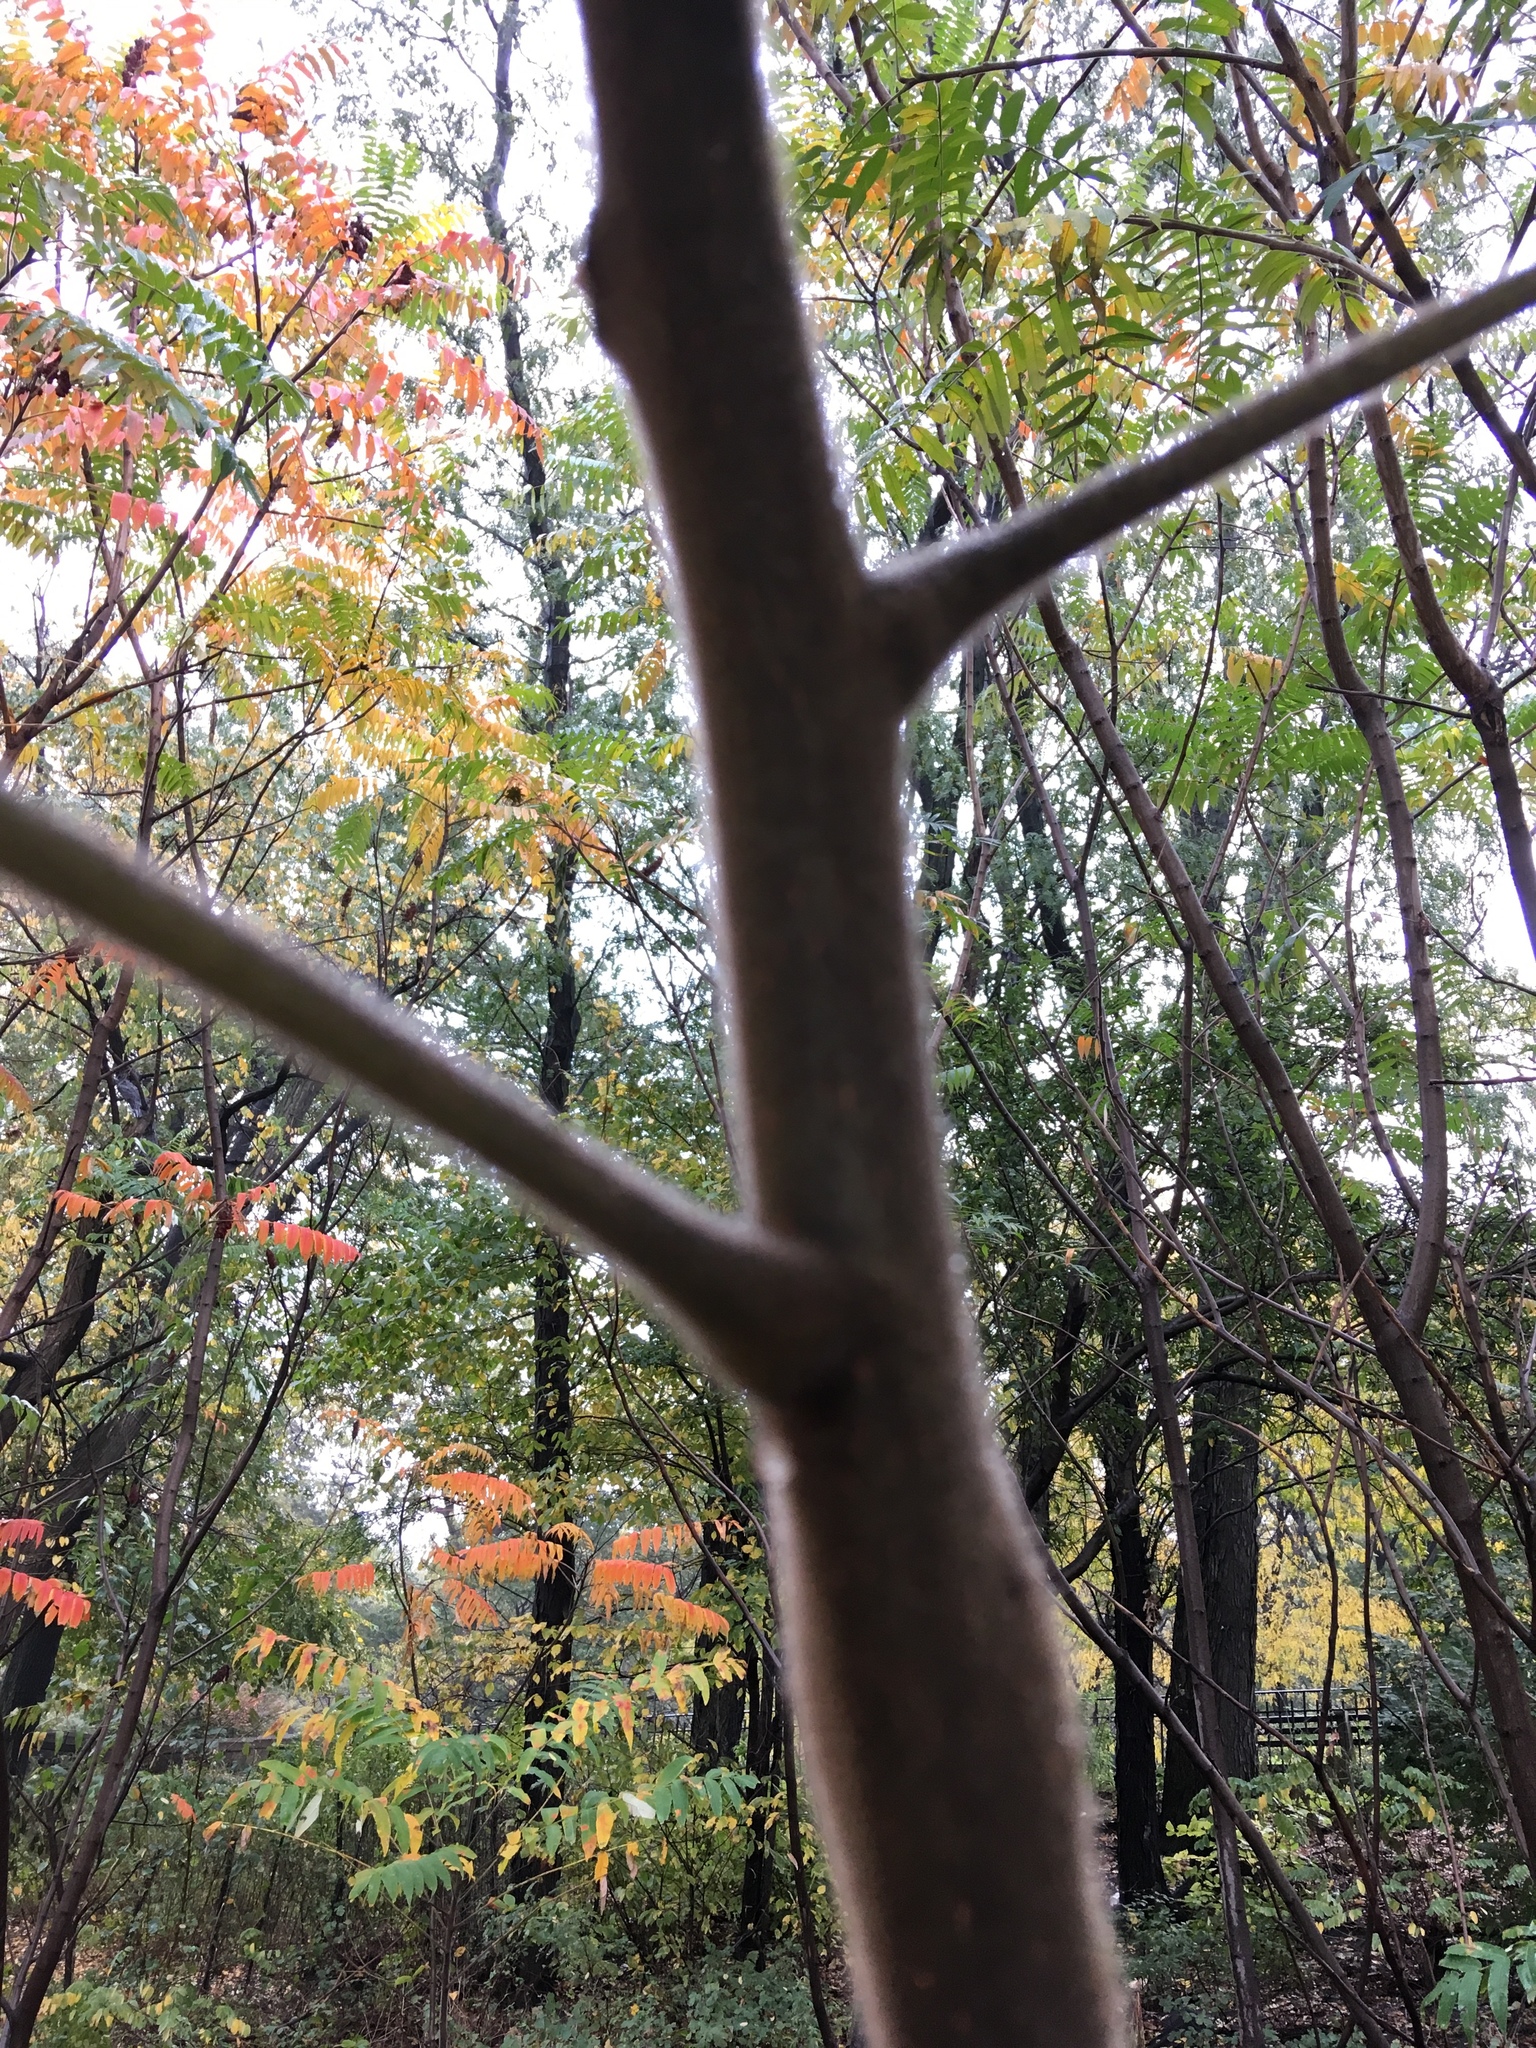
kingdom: Plantae
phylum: Tracheophyta
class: Magnoliopsida
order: Sapindales
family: Anacardiaceae
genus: Rhus
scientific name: Rhus typhina
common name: Staghorn sumac
